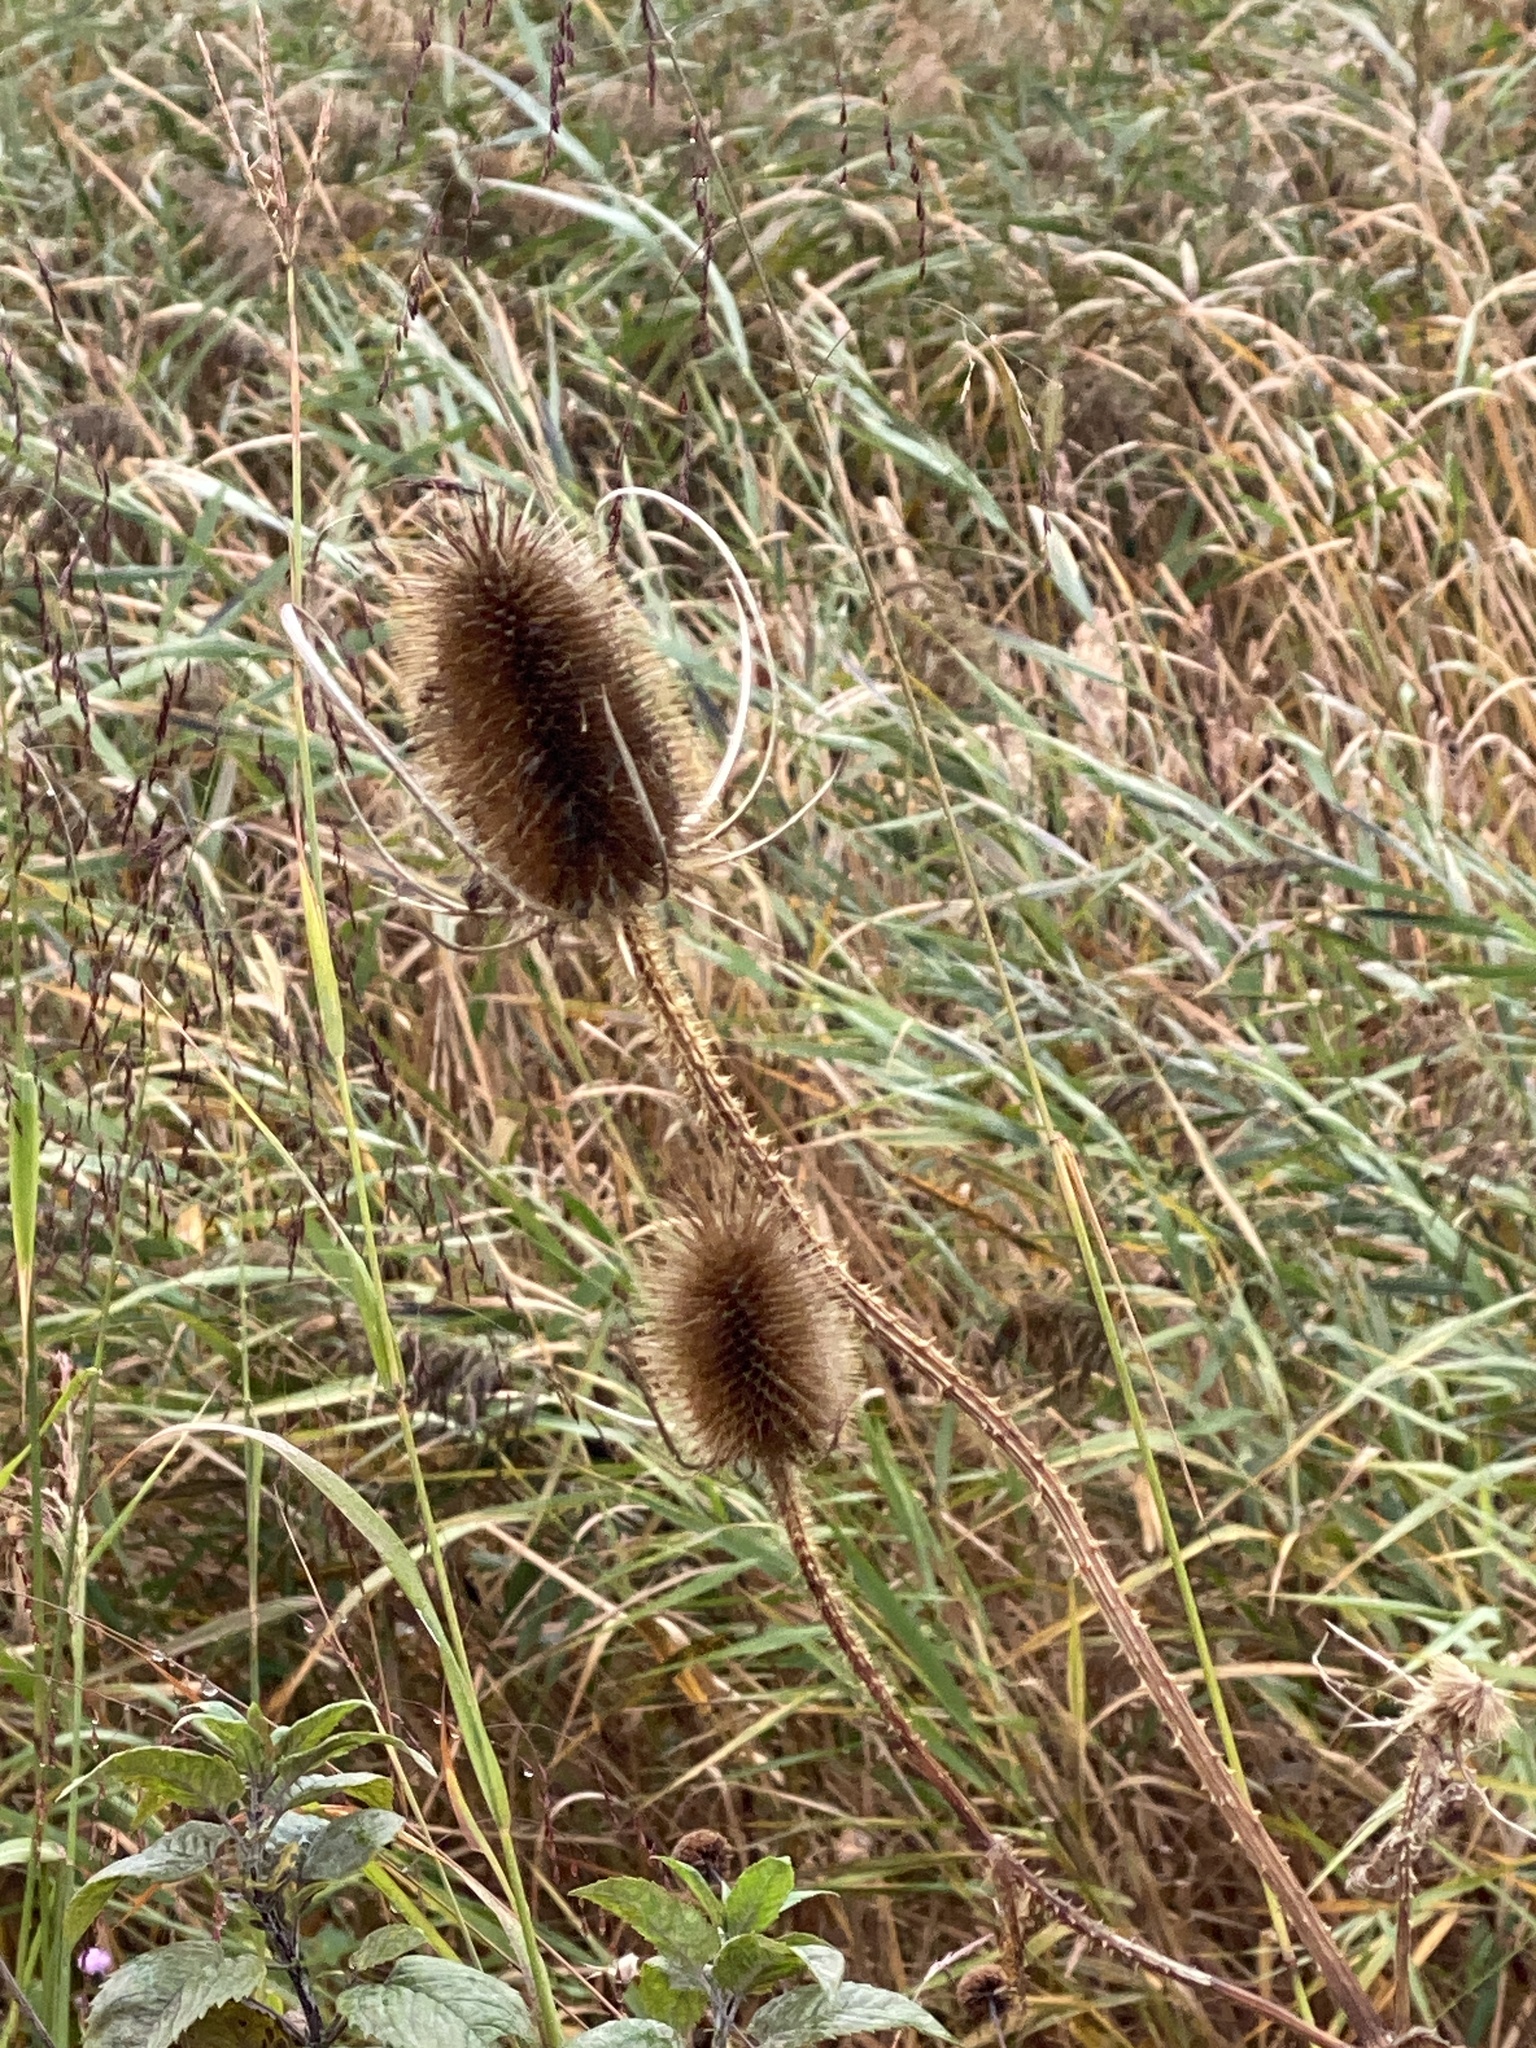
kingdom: Plantae
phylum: Tracheophyta
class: Magnoliopsida
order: Dipsacales
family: Caprifoliaceae
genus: Dipsacus
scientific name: Dipsacus fullonum
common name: Teasel
